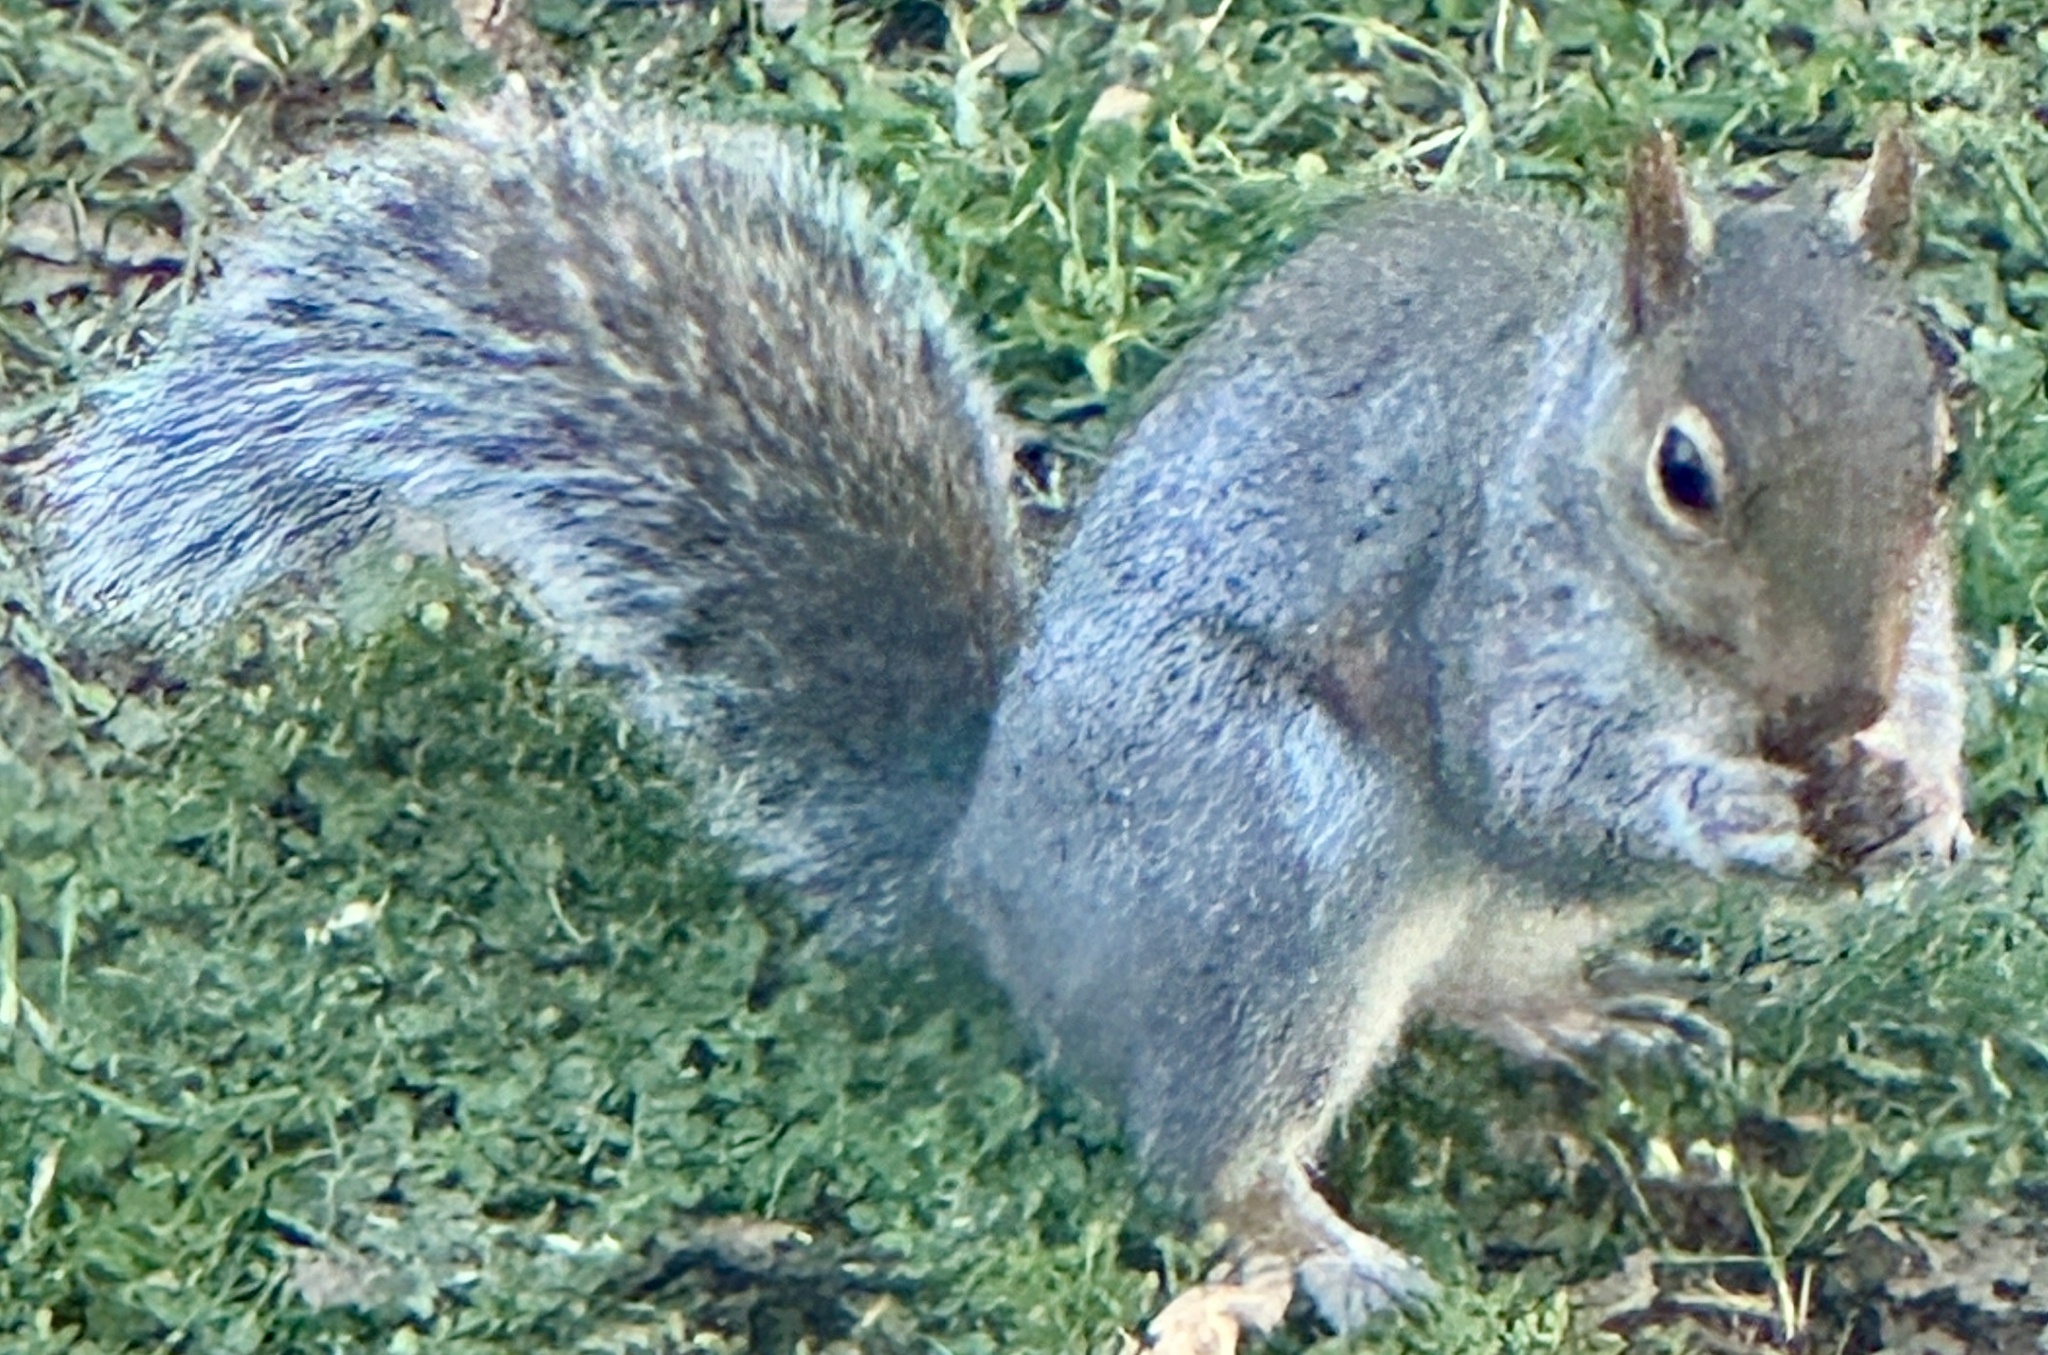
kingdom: Animalia
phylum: Chordata
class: Mammalia
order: Rodentia
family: Sciuridae
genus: Sciurus
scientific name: Sciurus carolinensis
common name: Eastern gray squirrel
